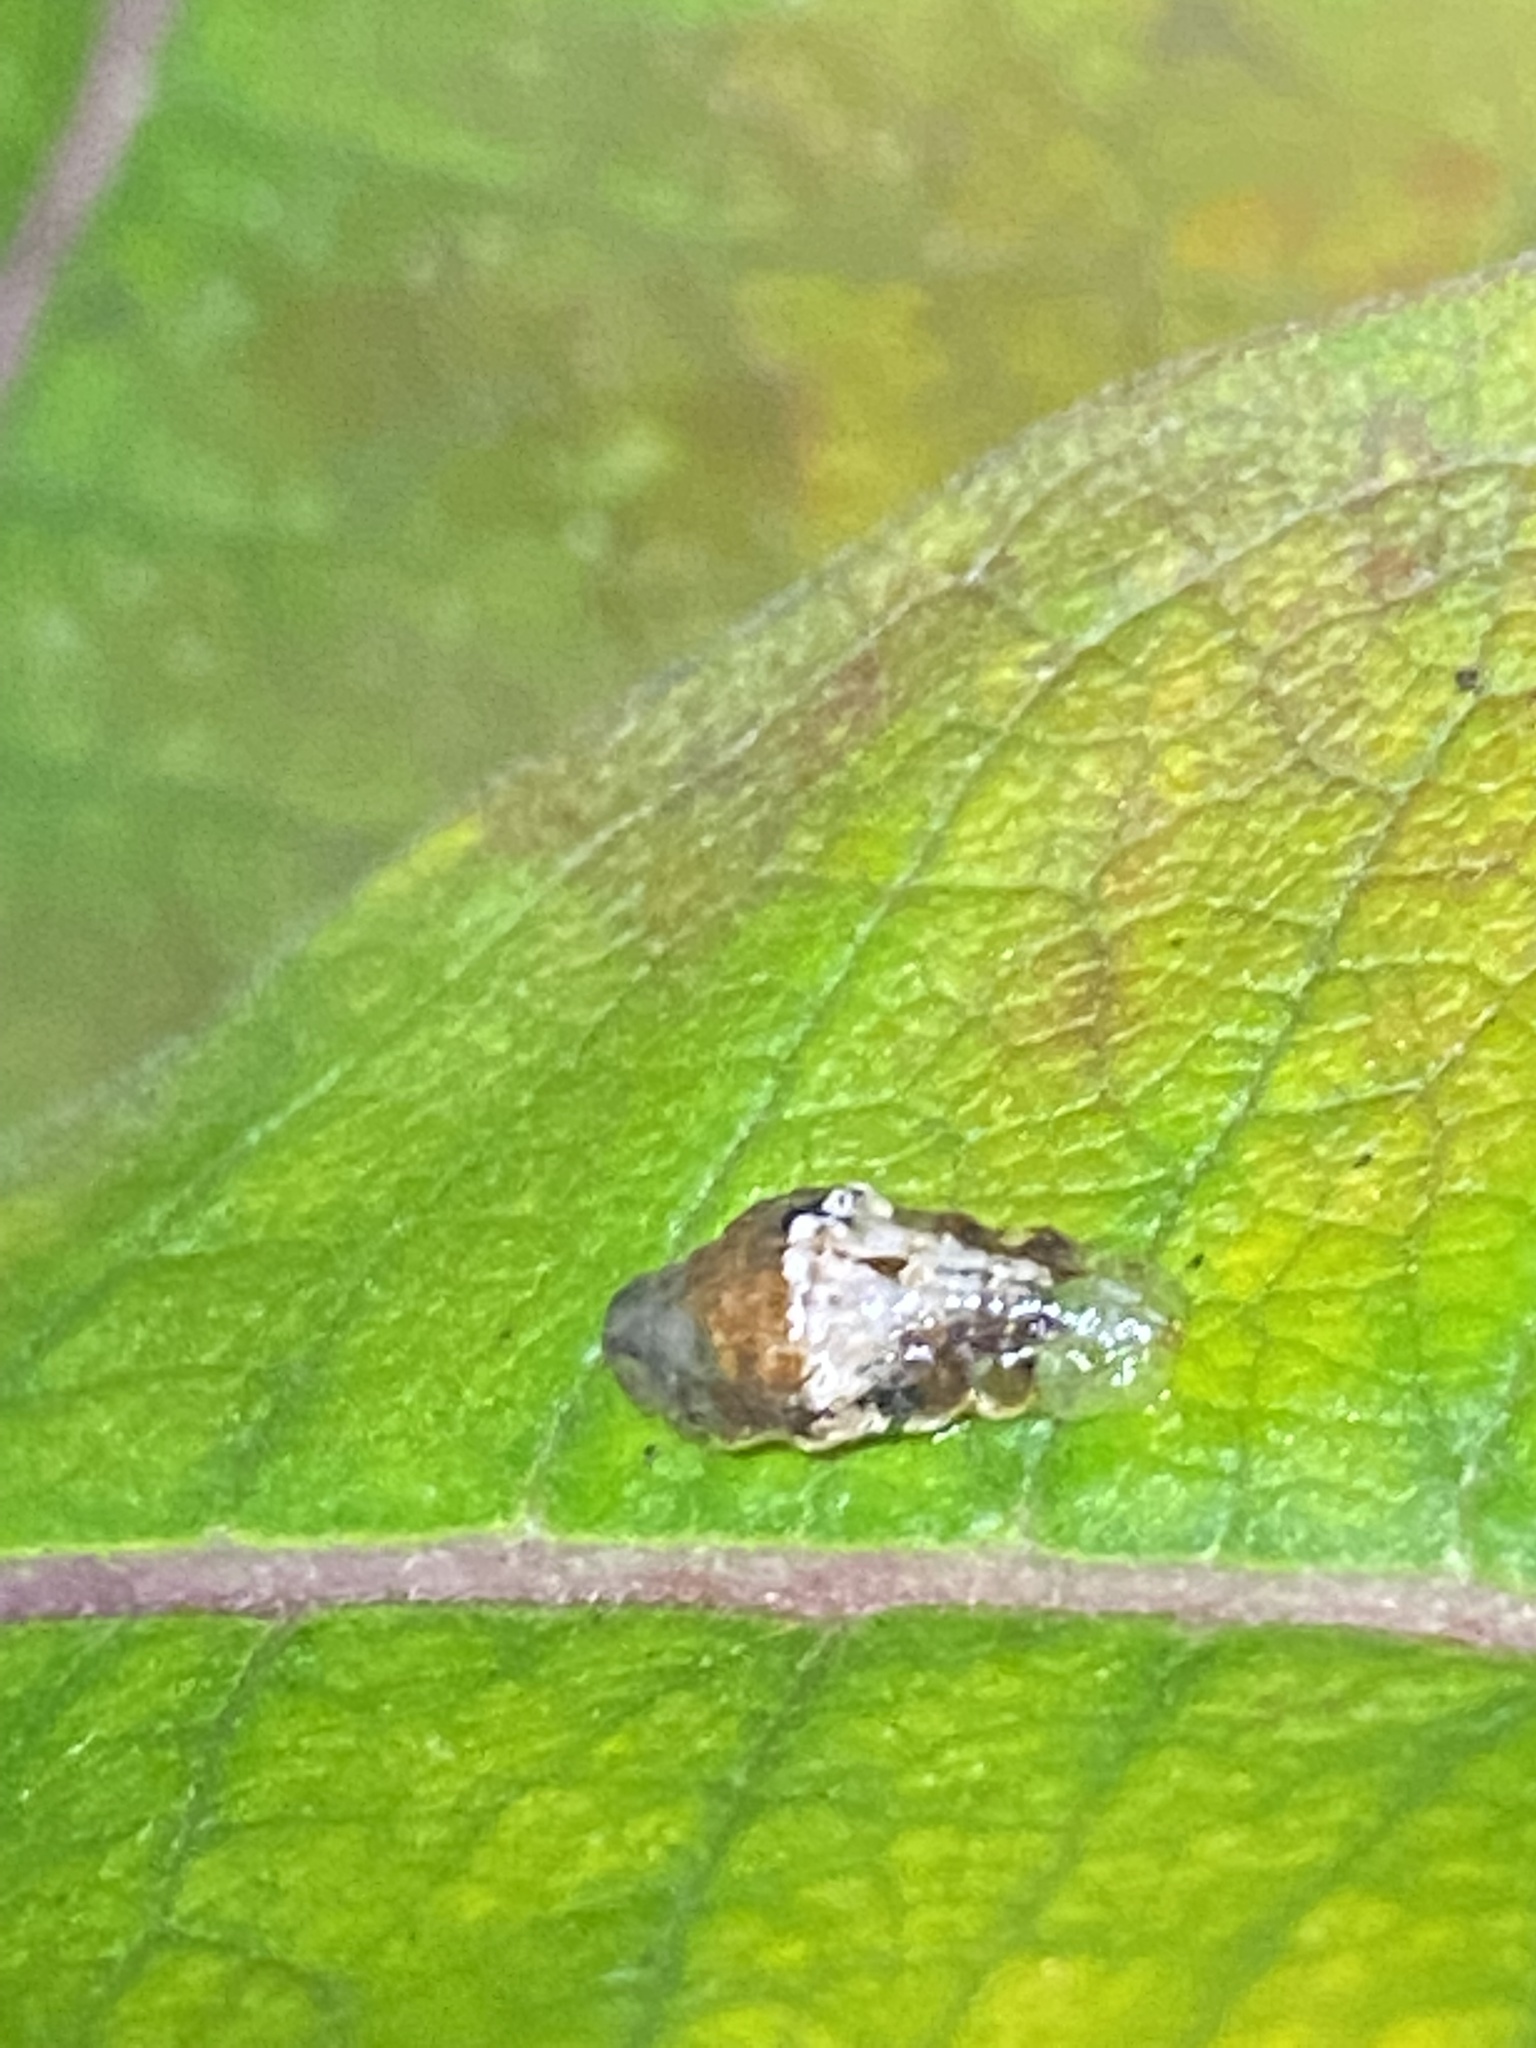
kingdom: Animalia
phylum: Arthropoda
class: Insecta
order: Diptera
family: Syrphidae
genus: Ocyptamus
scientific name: Ocyptamus fuscipennis
